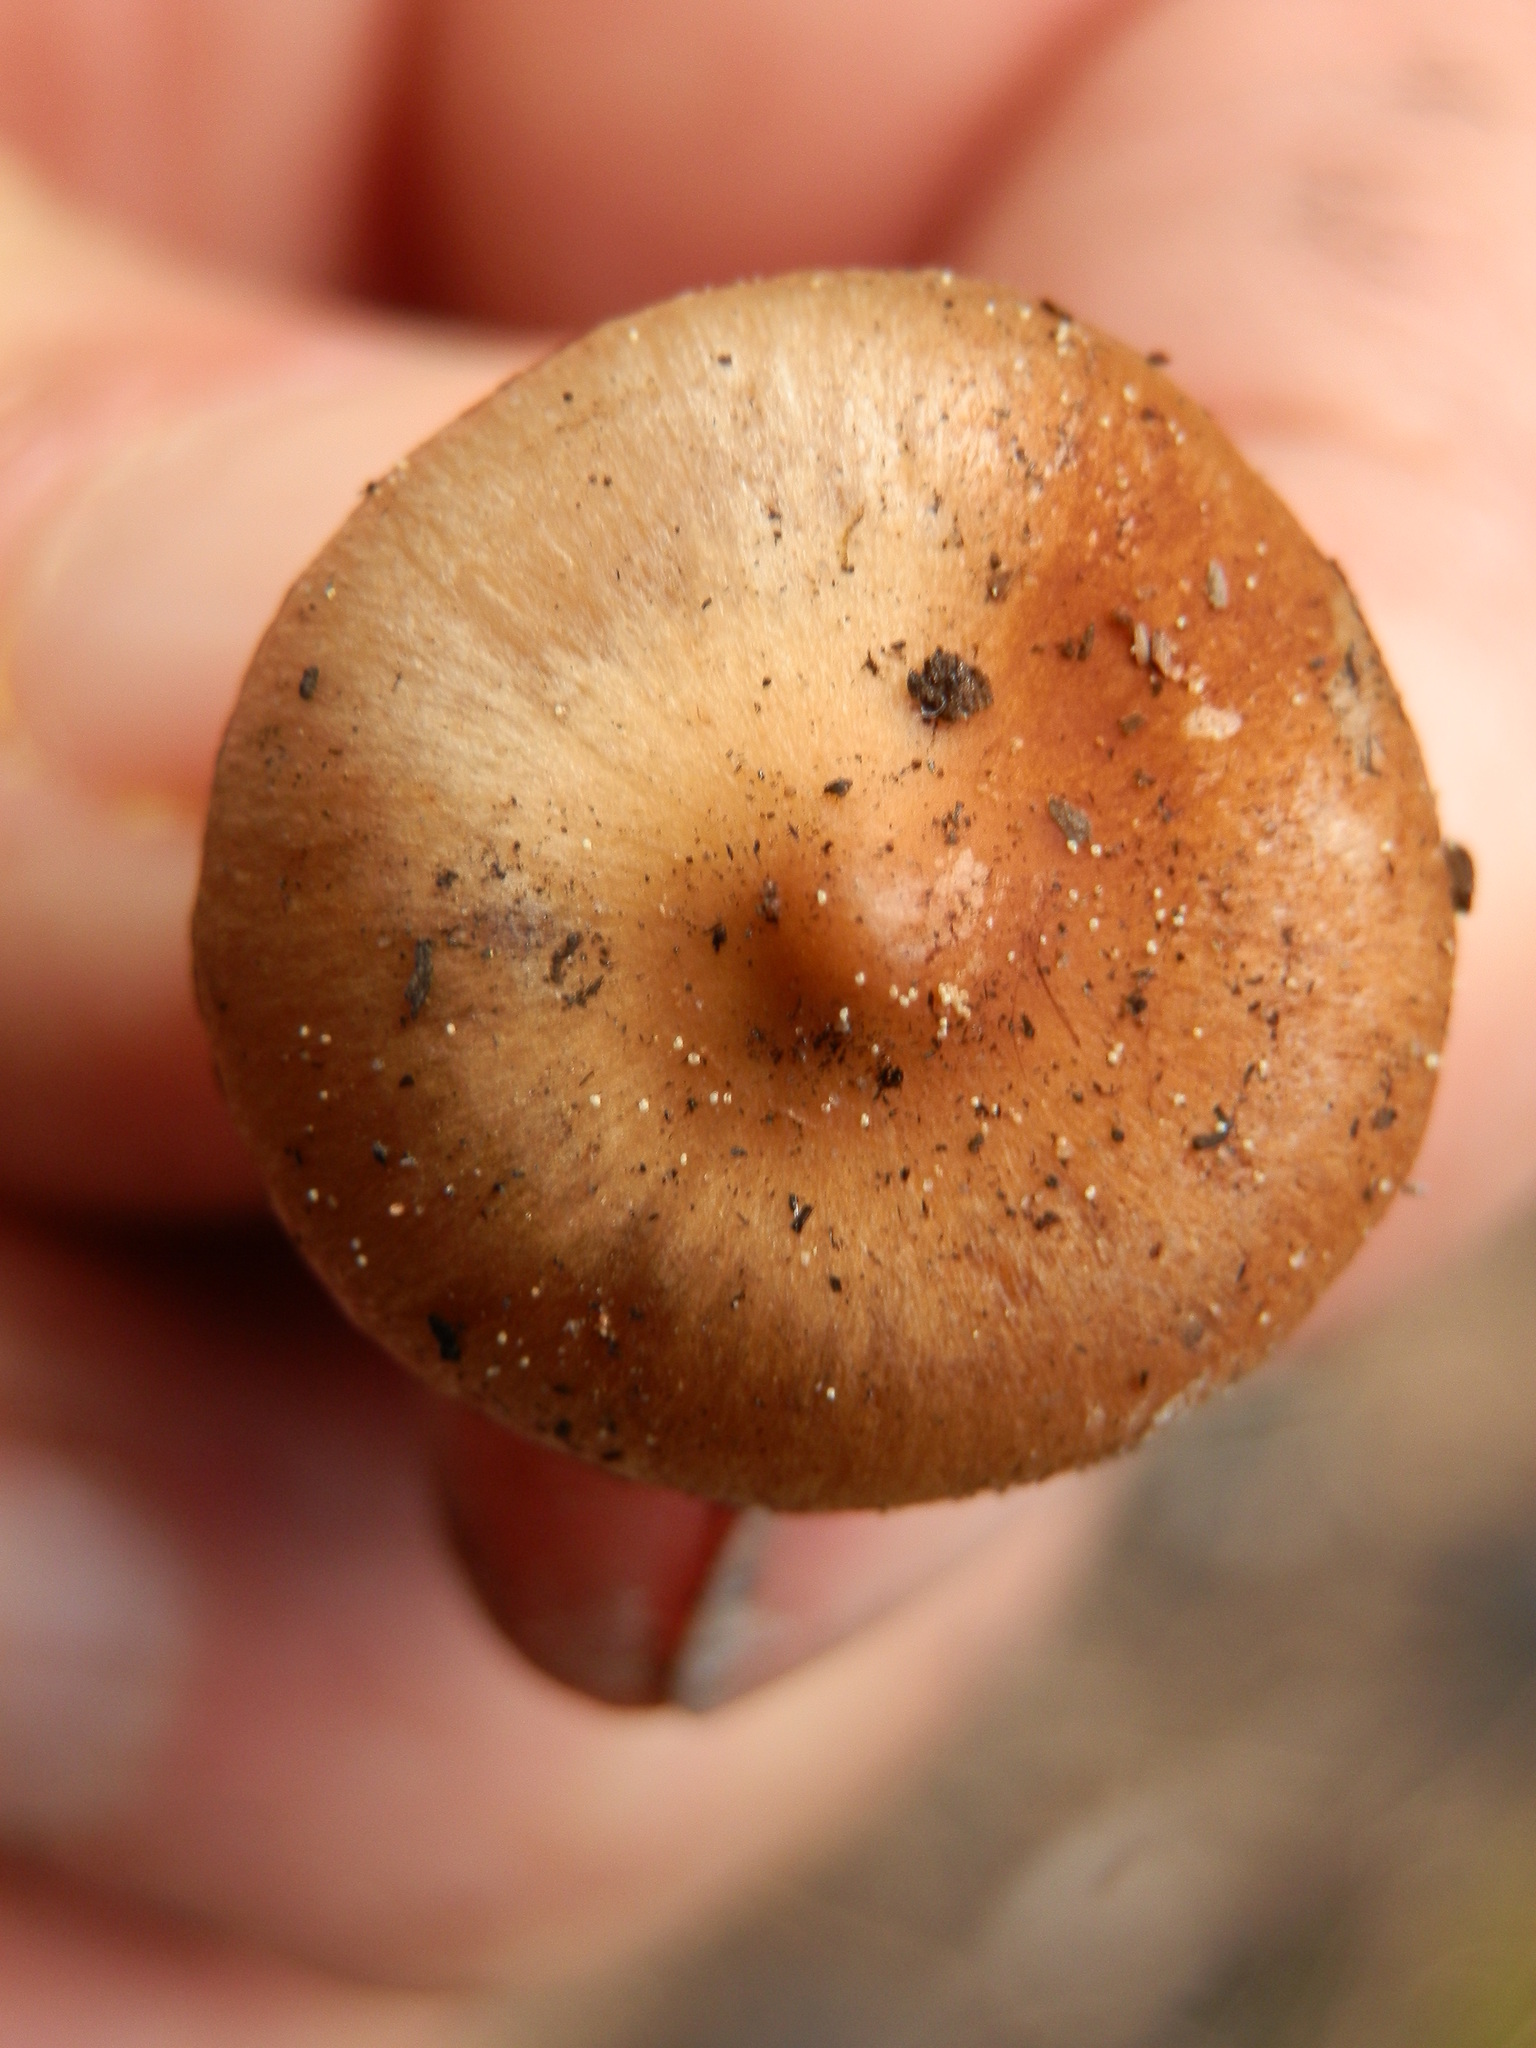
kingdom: Fungi
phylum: Basidiomycota
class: Agaricomycetes
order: Agaricales
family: Strophariaceae
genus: Pholiota
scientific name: Pholiota carbonaria
